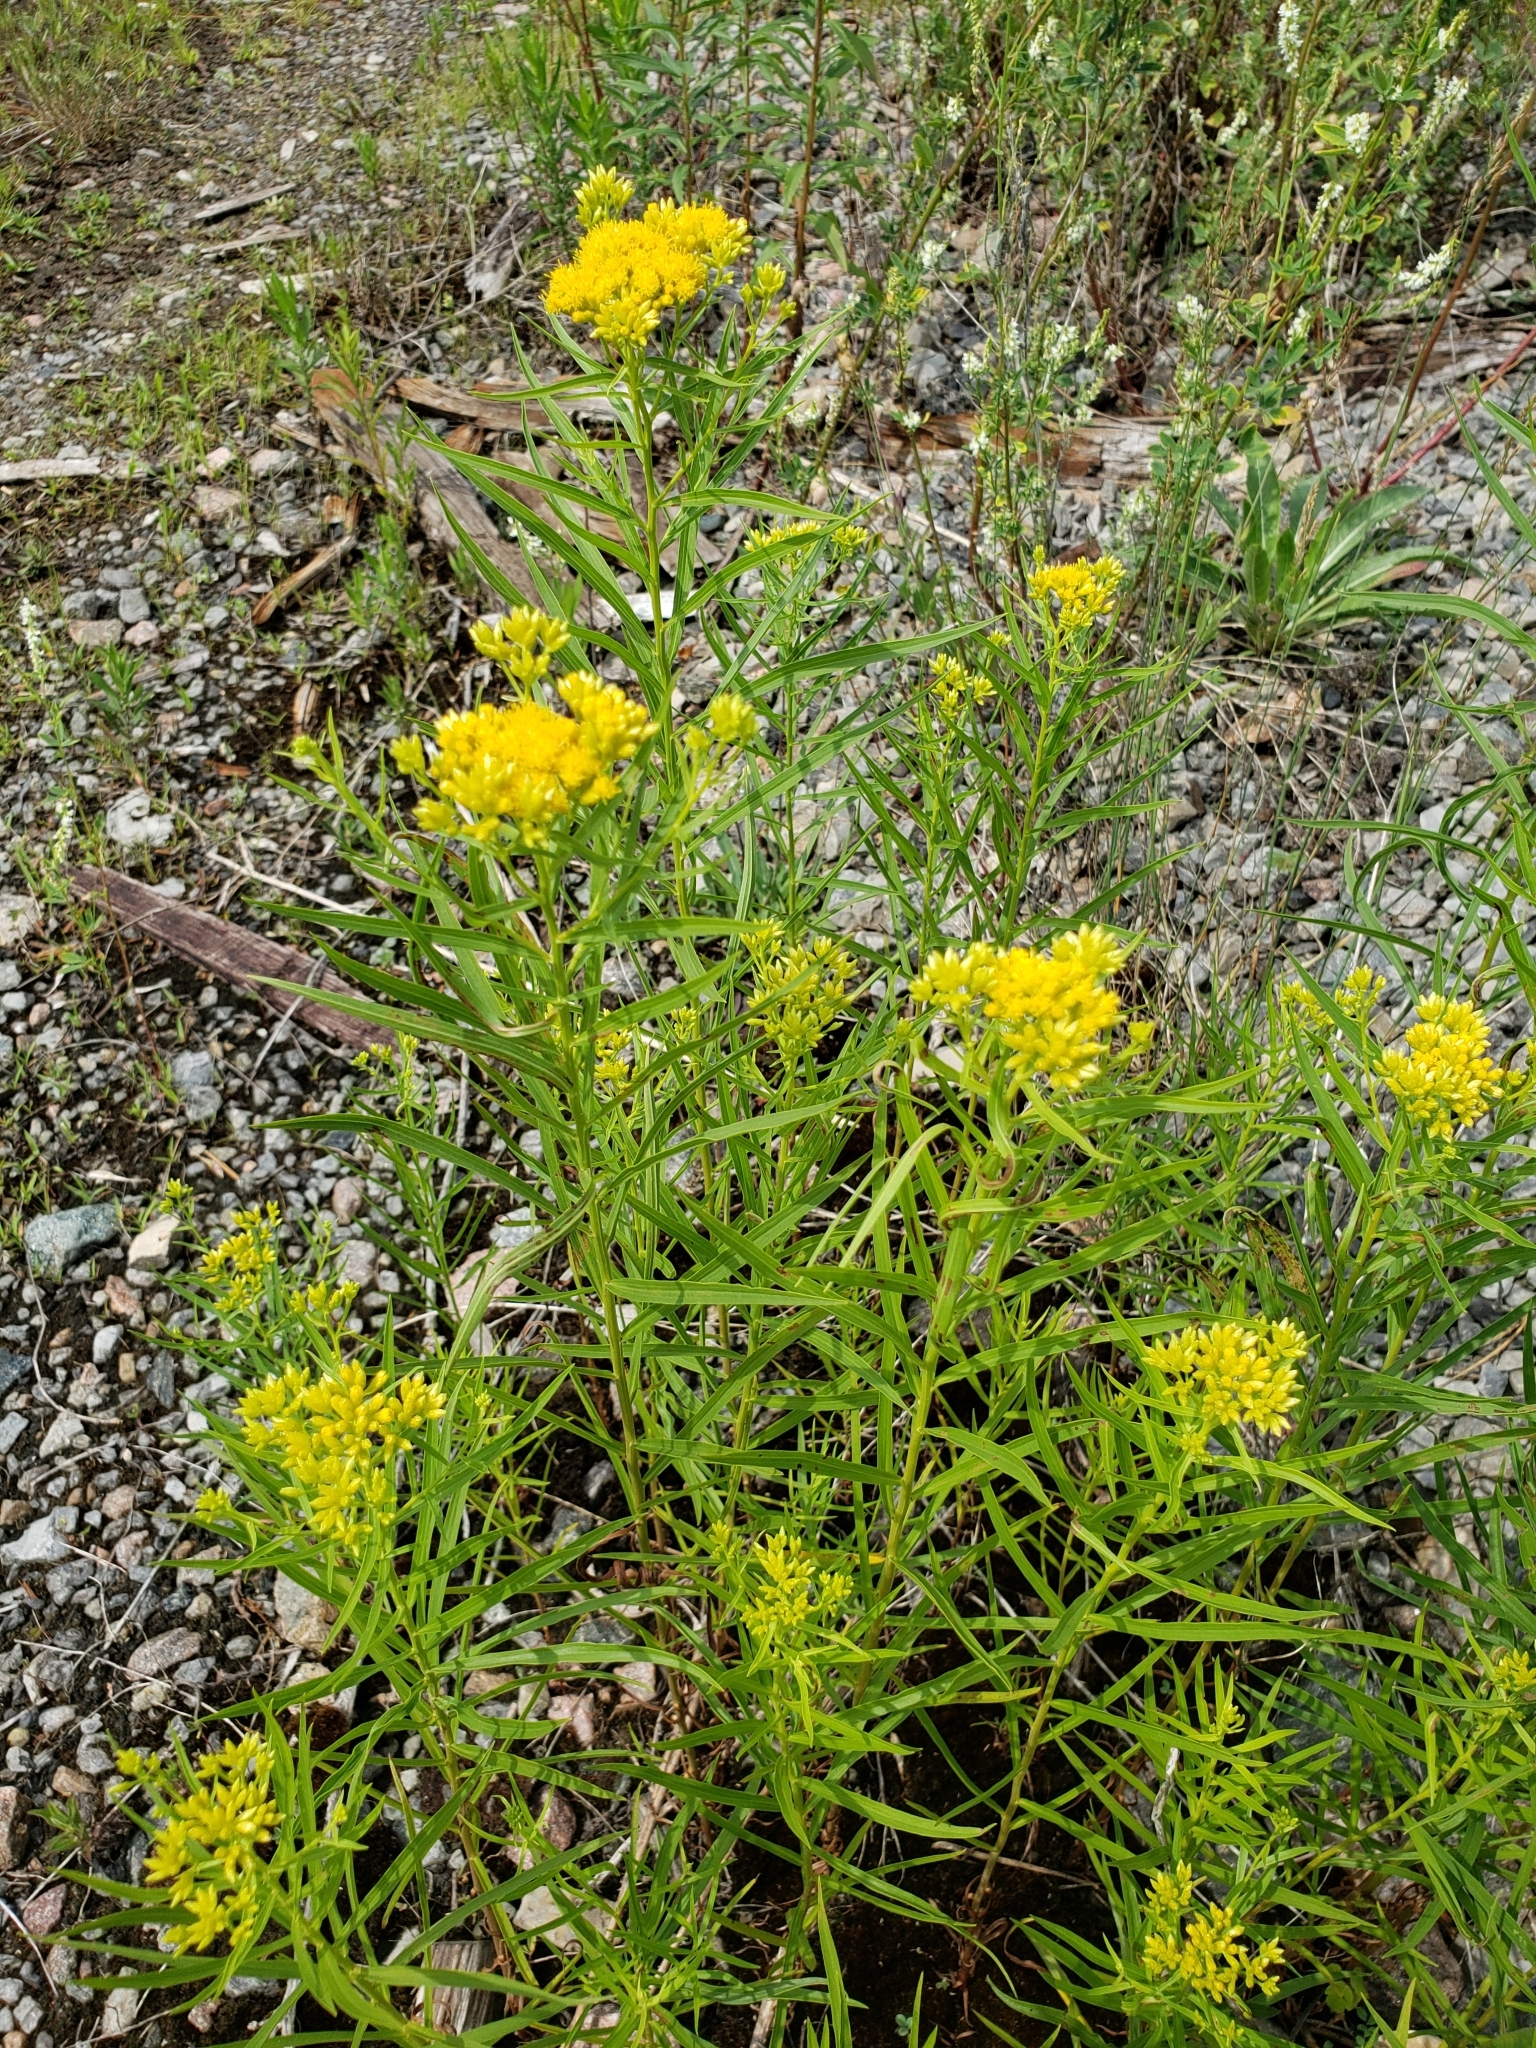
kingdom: Plantae
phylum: Tracheophyta
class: Magnoliopsida
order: Asterales
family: Asteraceae
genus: Euthamia
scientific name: Euthamia graminifolia
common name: Common goldentop
